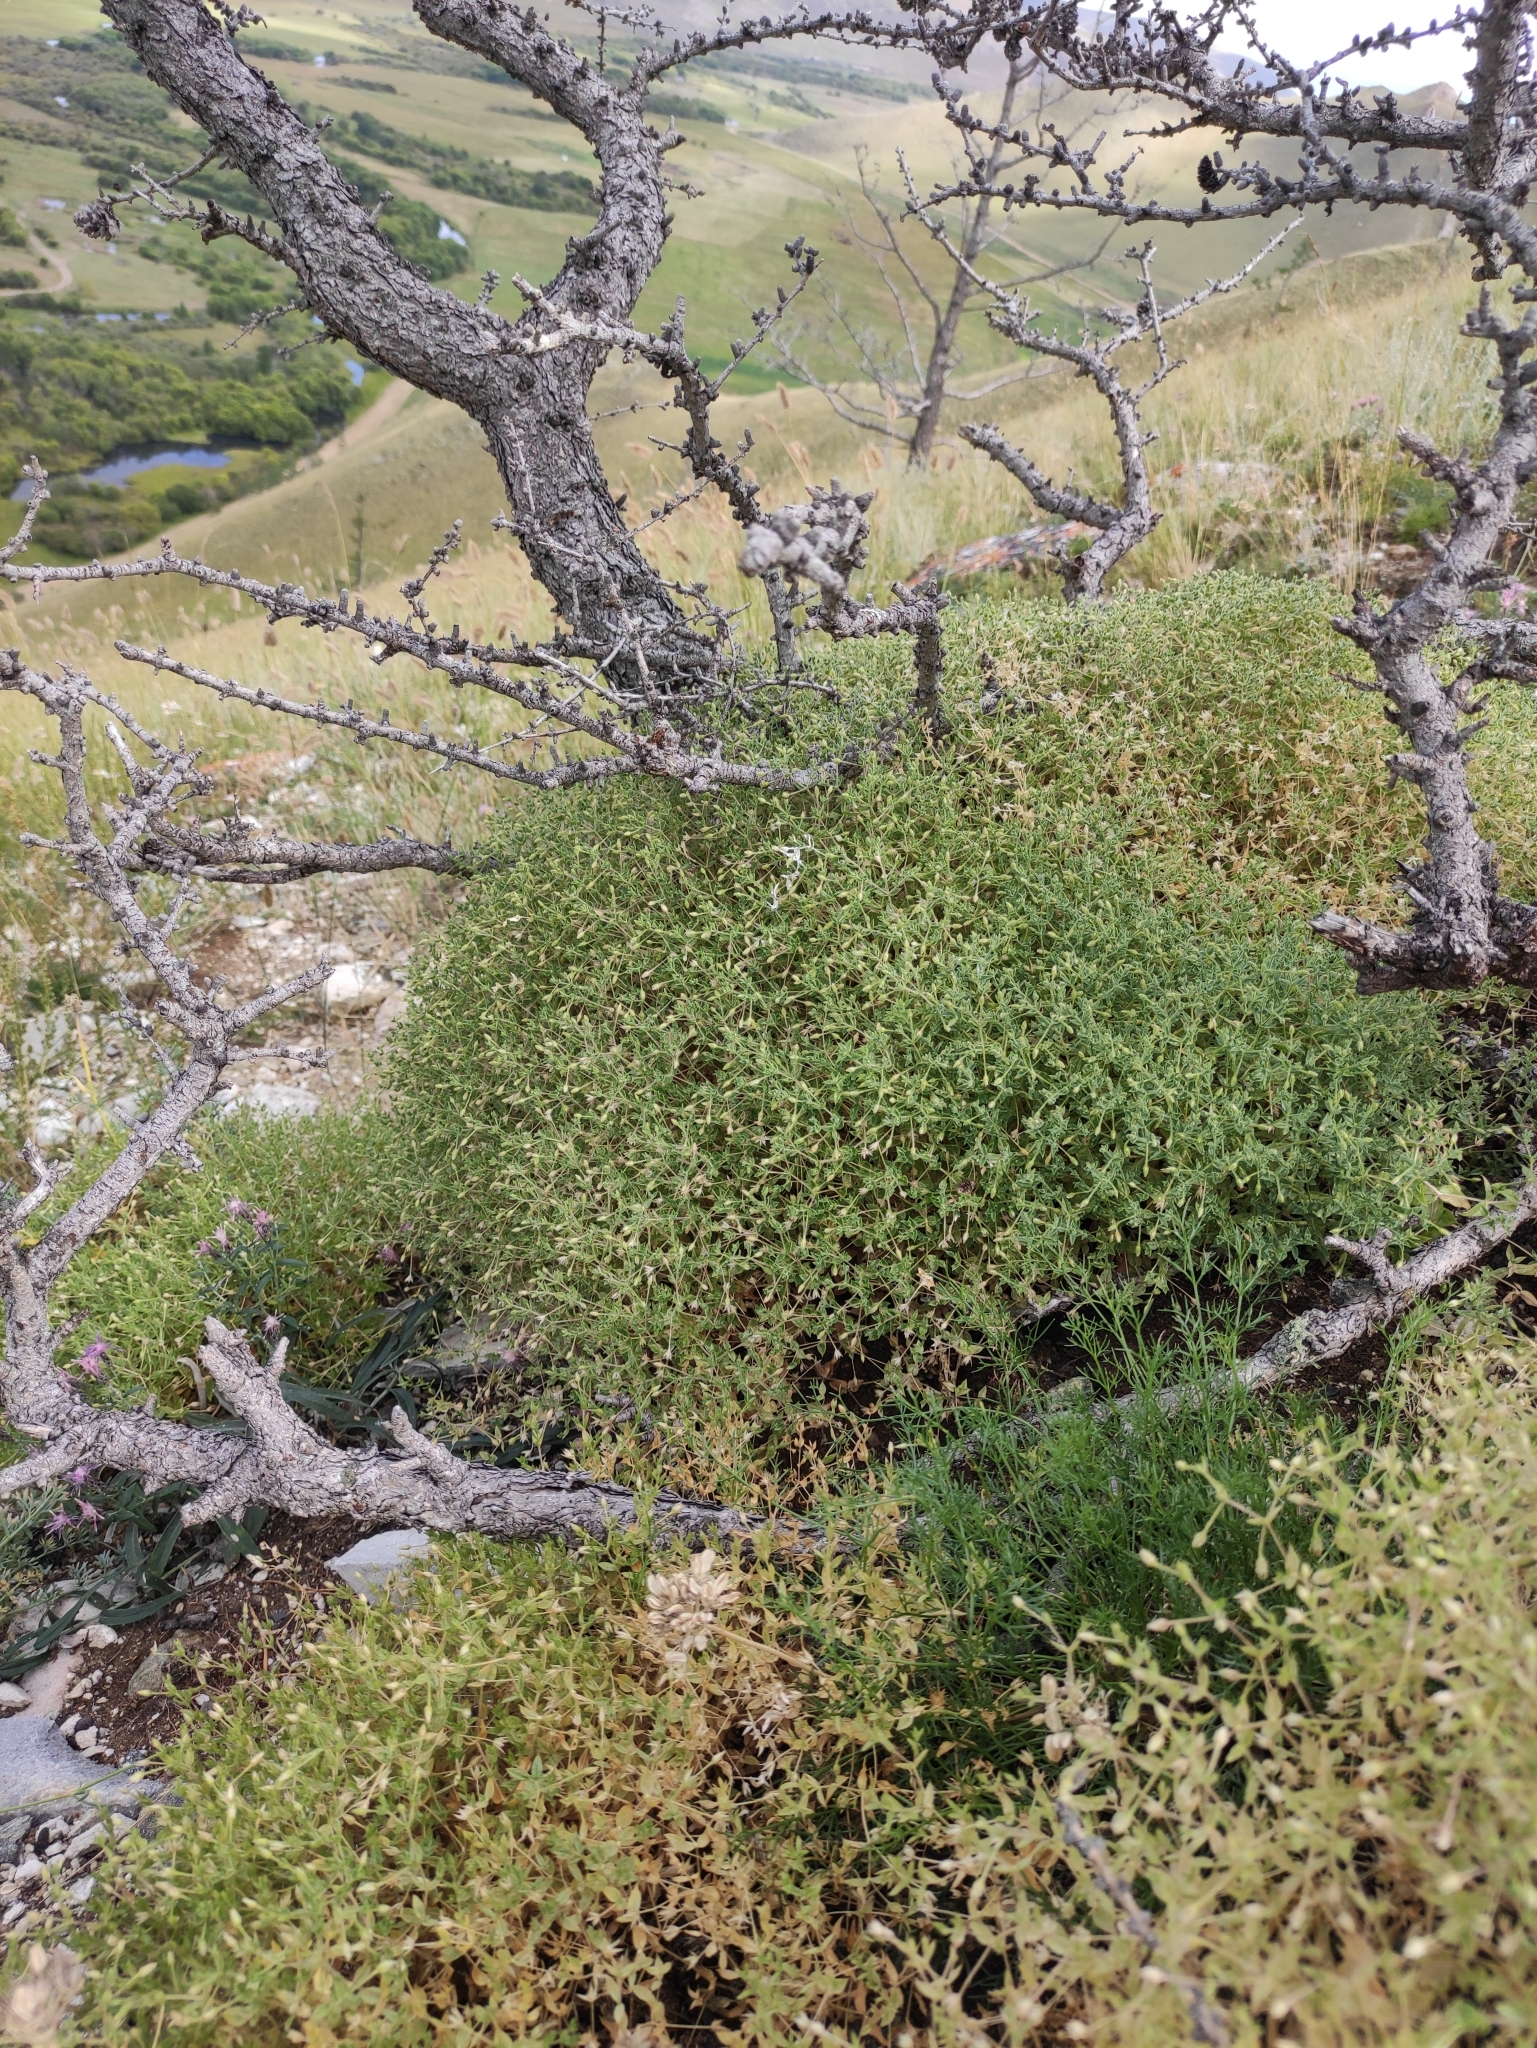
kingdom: Plantae
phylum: Tracheophyta
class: Magnoliopsida
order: Caryophyllales
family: Caryophyllaceae
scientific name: Caryophyllaceae
